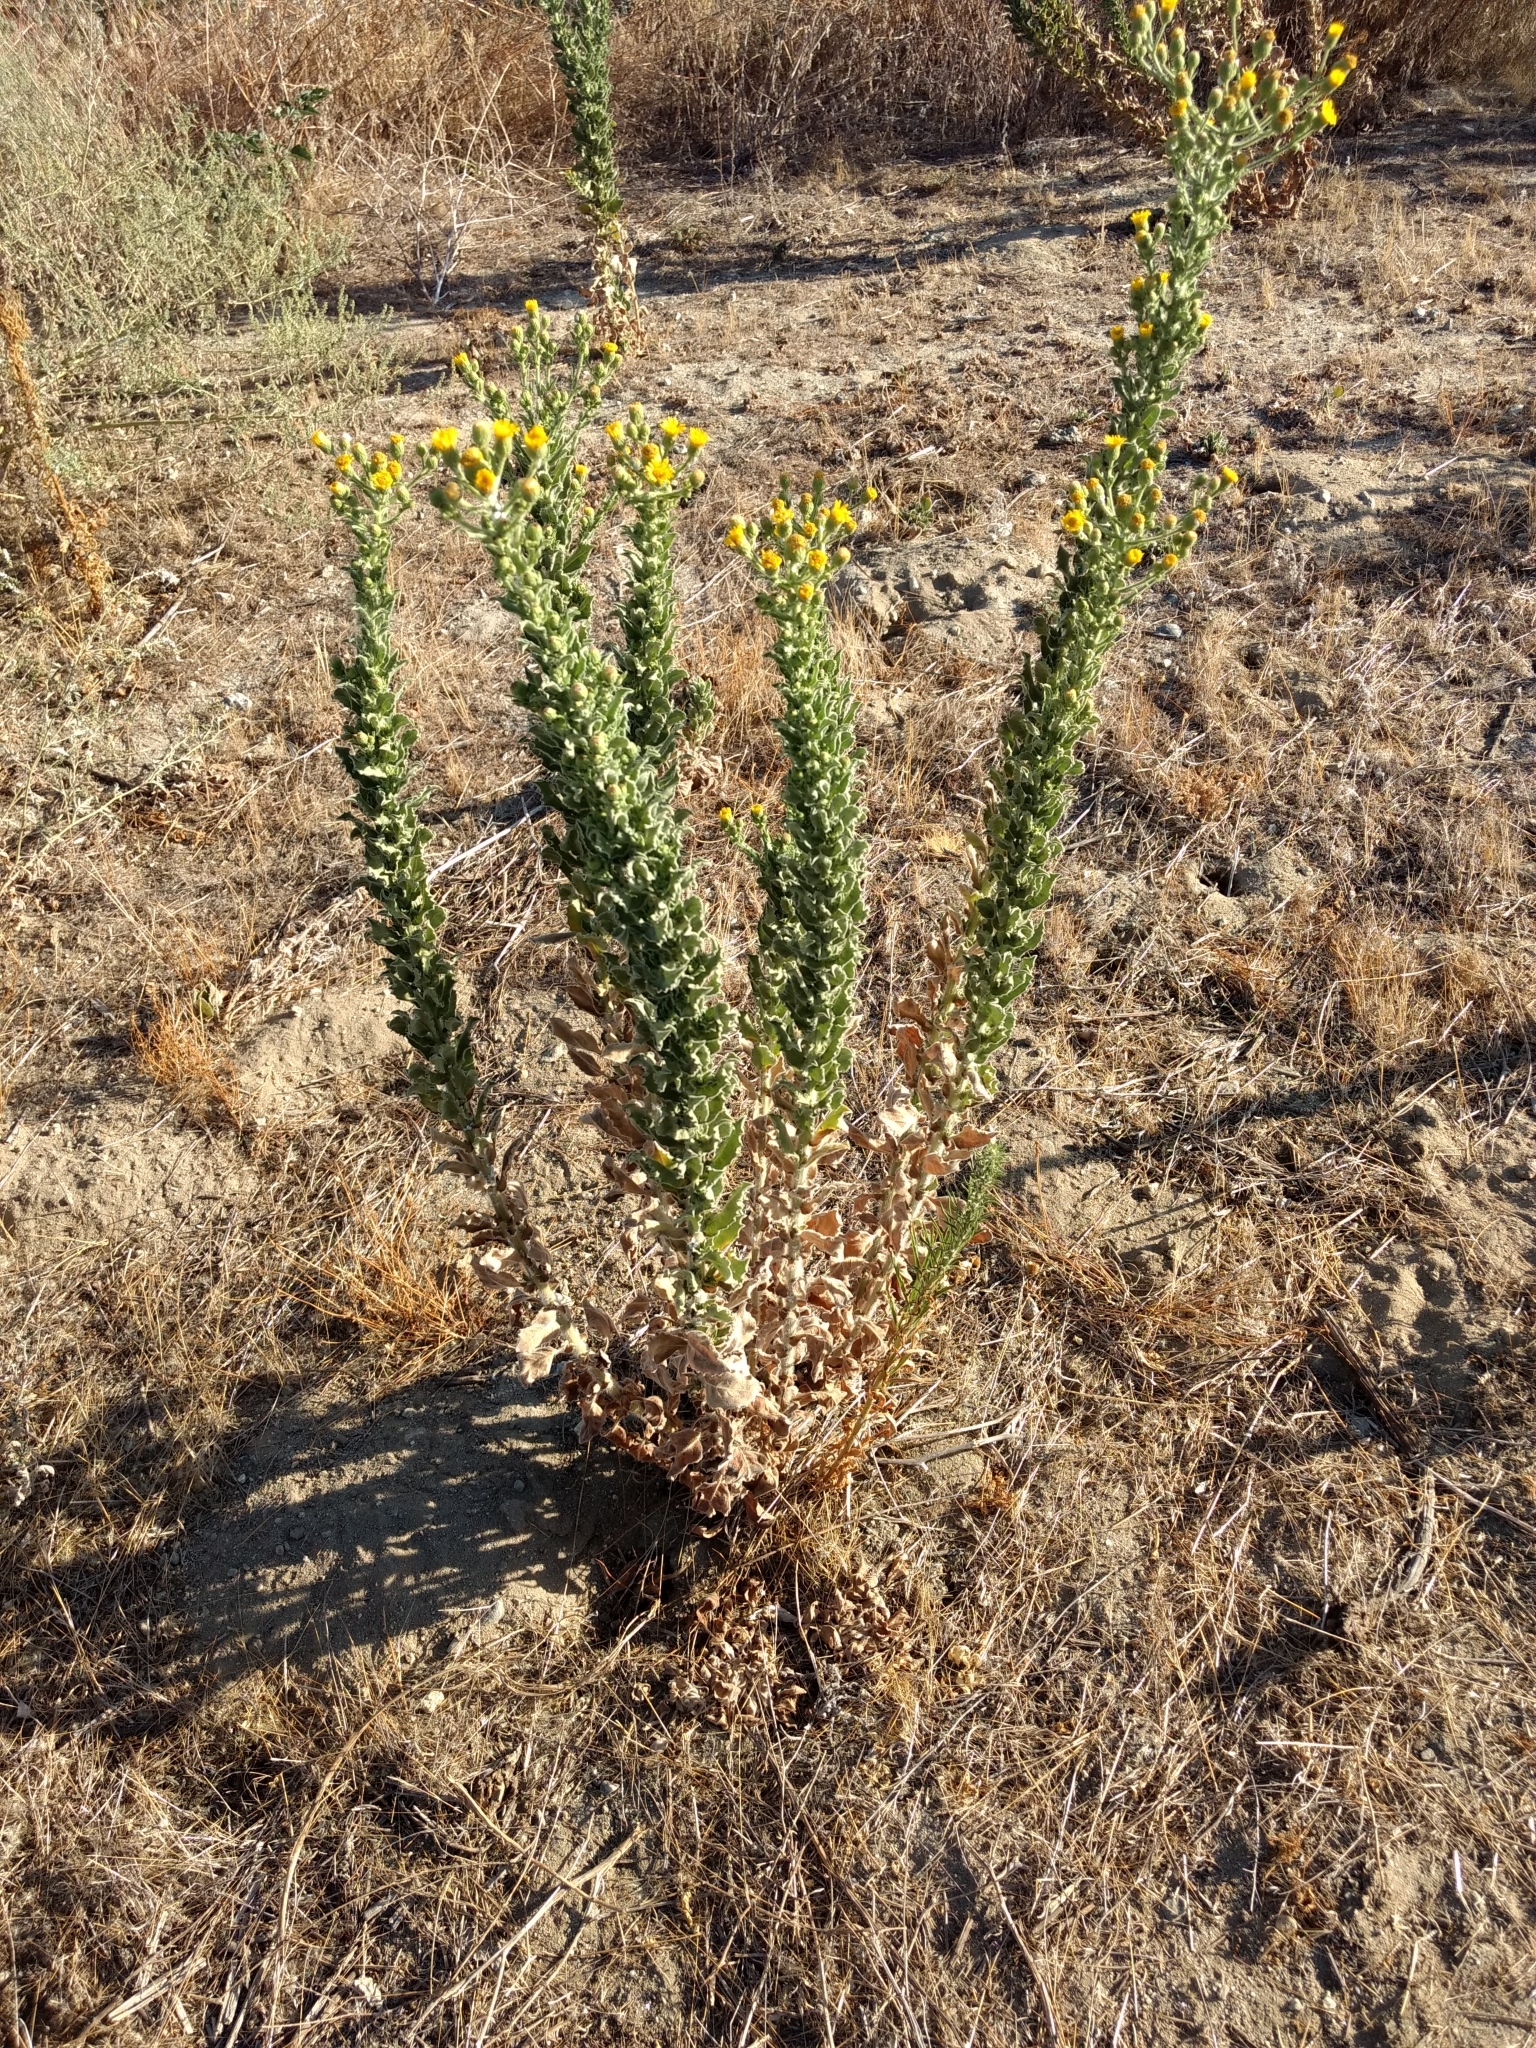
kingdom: Plantae
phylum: Tracheophyta
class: Magnoliopsida
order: Asterales
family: Asteraceae
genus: Heterotheca
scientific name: Heterotheca grandiflora
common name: Telegraphweed
